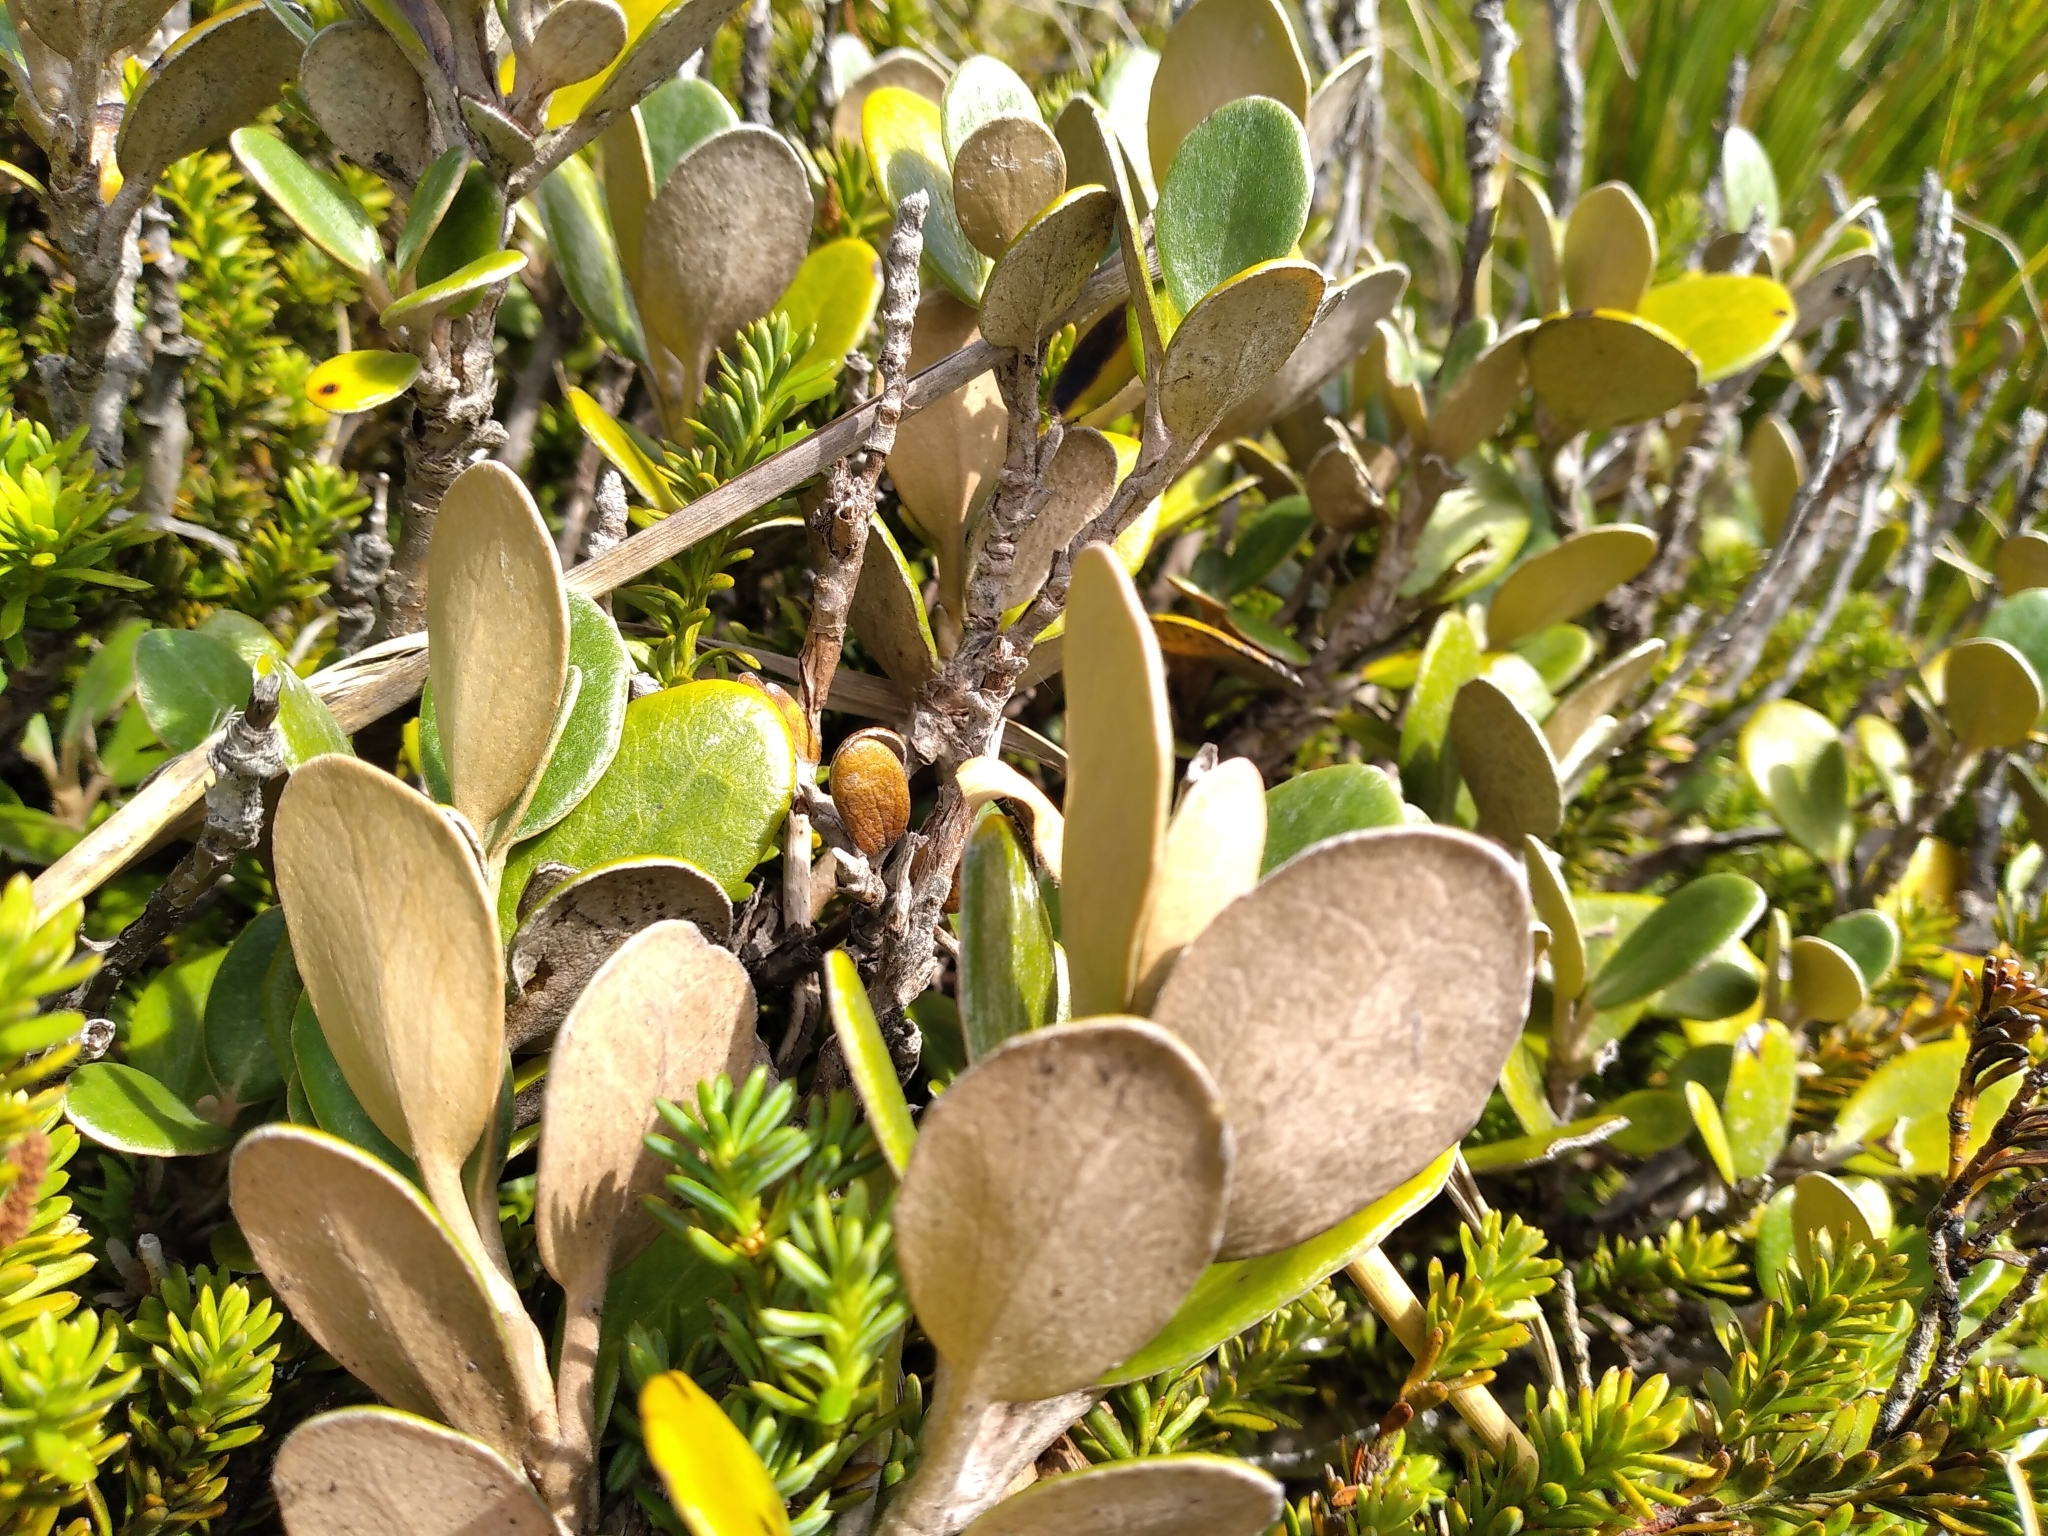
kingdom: Plantae
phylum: Tracheophyta
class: Magnoliopsida
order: Asterales
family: Asteraceae
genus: Brachyglottis
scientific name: Brachyglottis bidwillii
